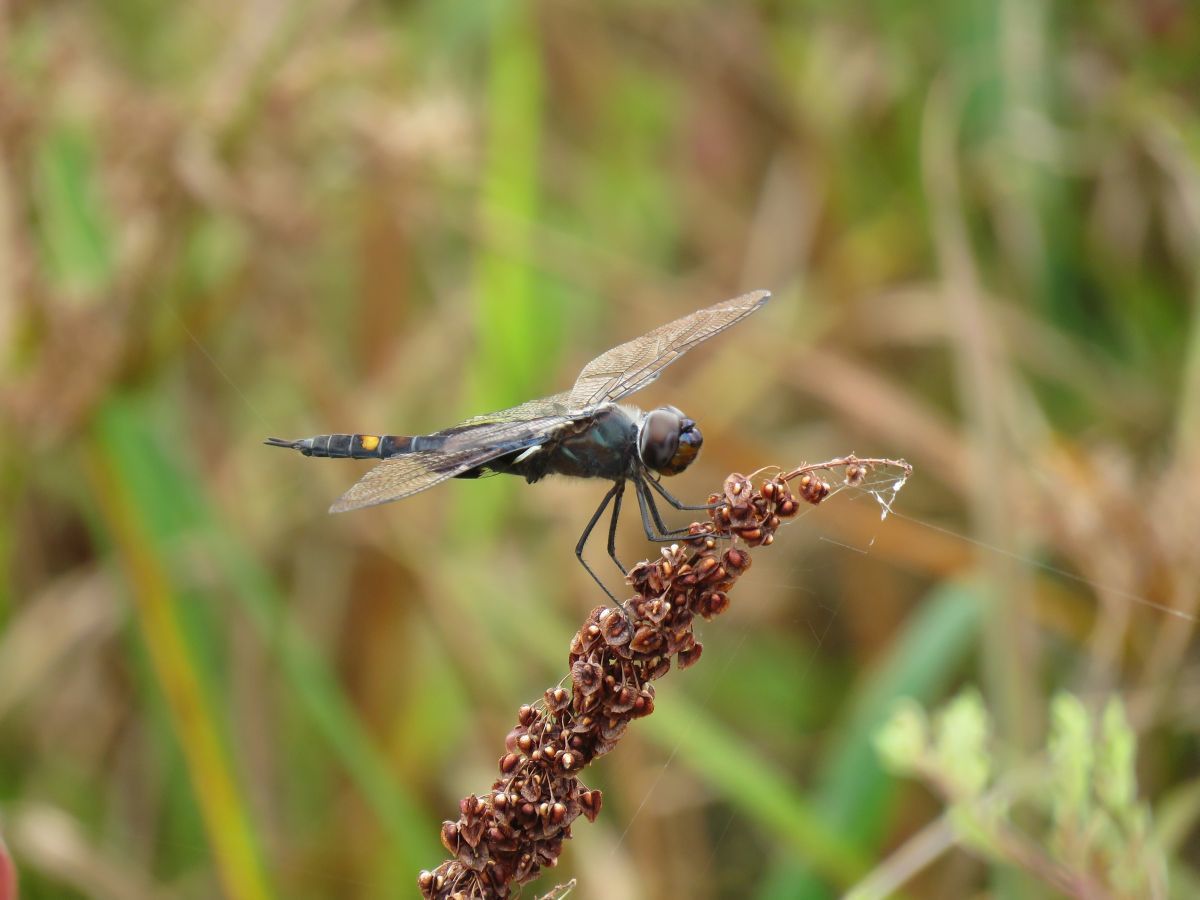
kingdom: Animalia
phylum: Arthropoda
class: Insecta
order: Odonata
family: Libellulidae
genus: Tramea
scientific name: Tramea lacerata
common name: Black saddlebags
